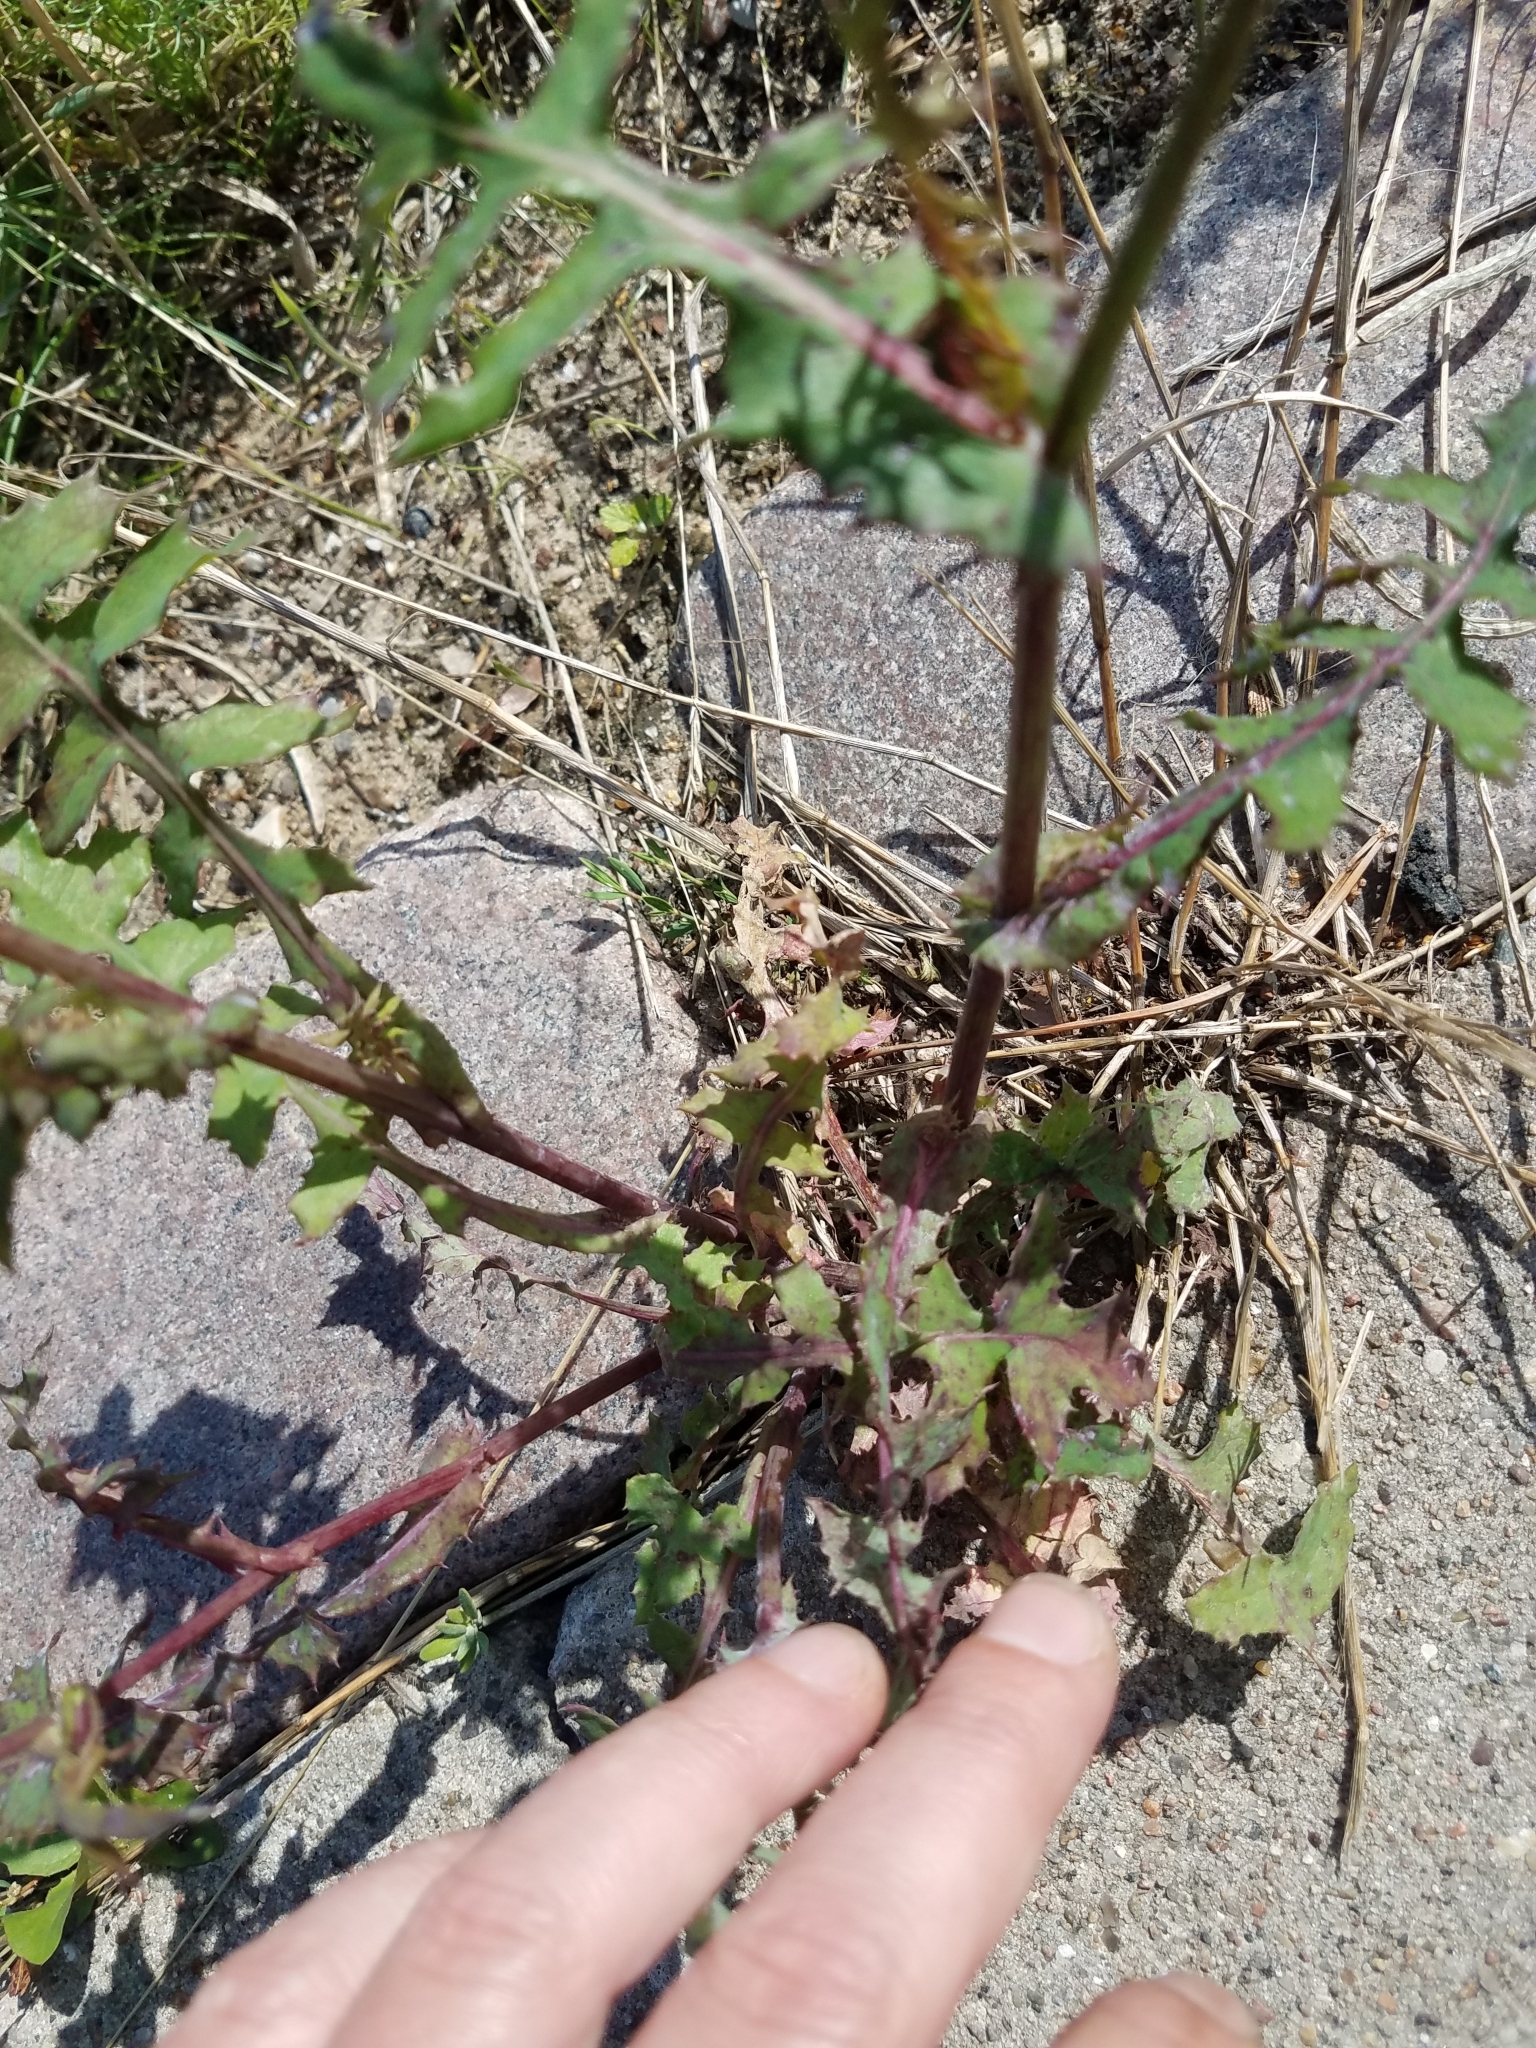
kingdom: Plantae
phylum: Tracheophyta
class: Magnoliopsida
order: Asterales
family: Asteraceae
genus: Sonchus
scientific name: Sonchus oleraceus
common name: Common sowthistle
